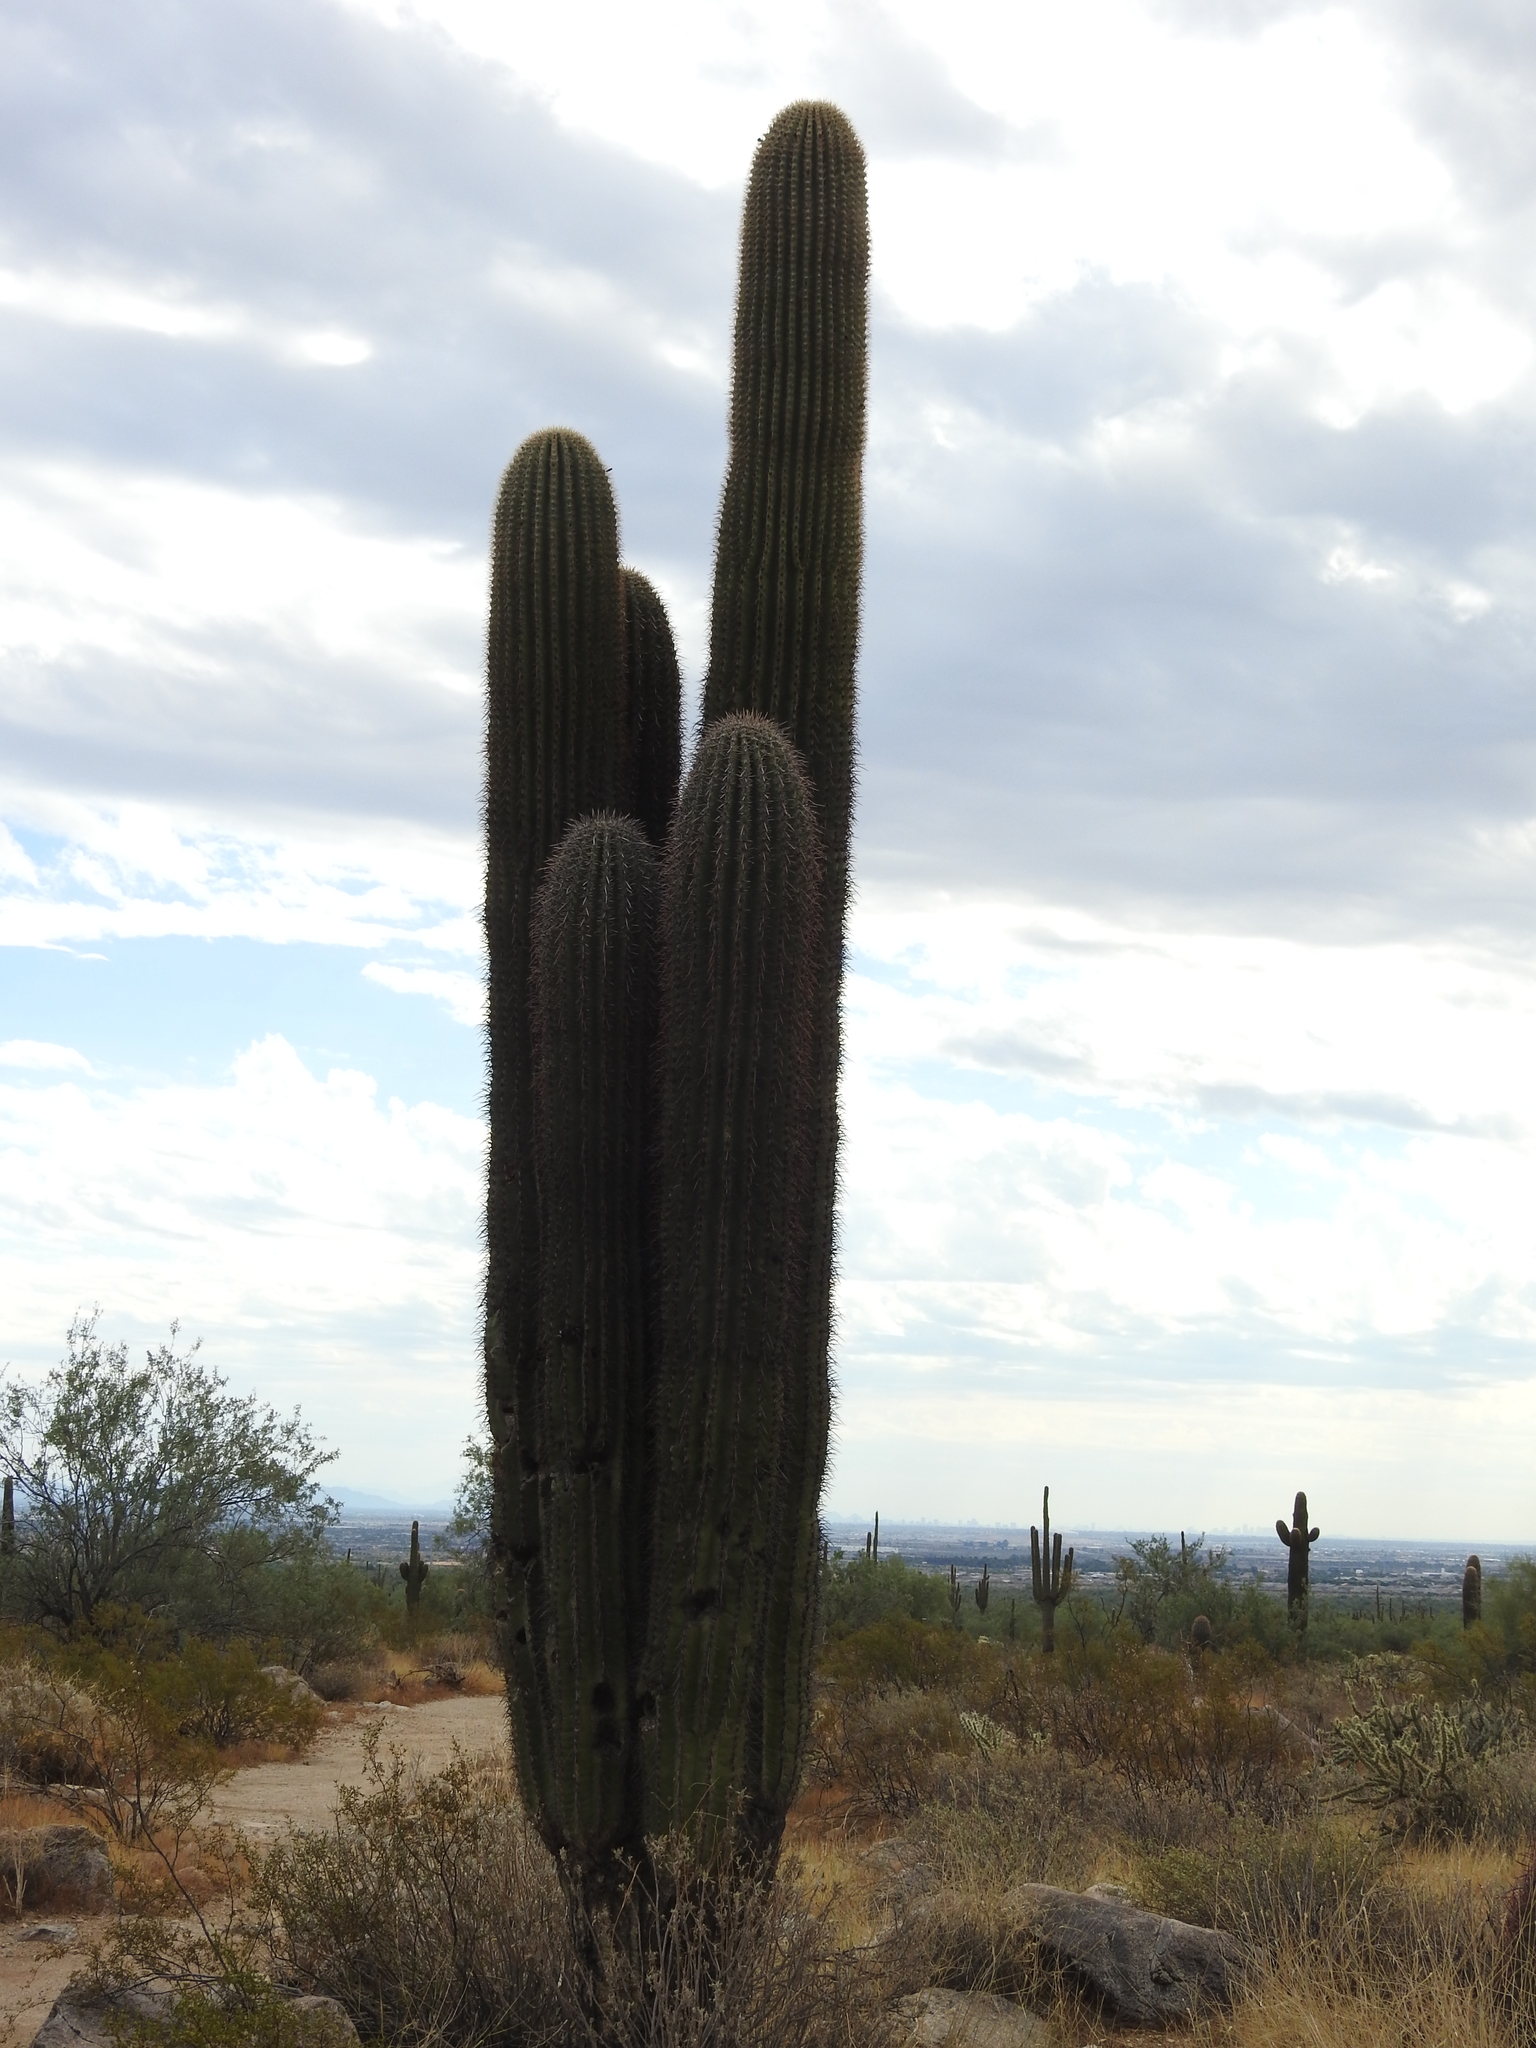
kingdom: Plantae
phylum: Tracheophyta
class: Magnoliopsida
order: Caryophyllales
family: Cactaceae
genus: Carnegiea
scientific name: Carnegiea gigantea
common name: Saguaro
